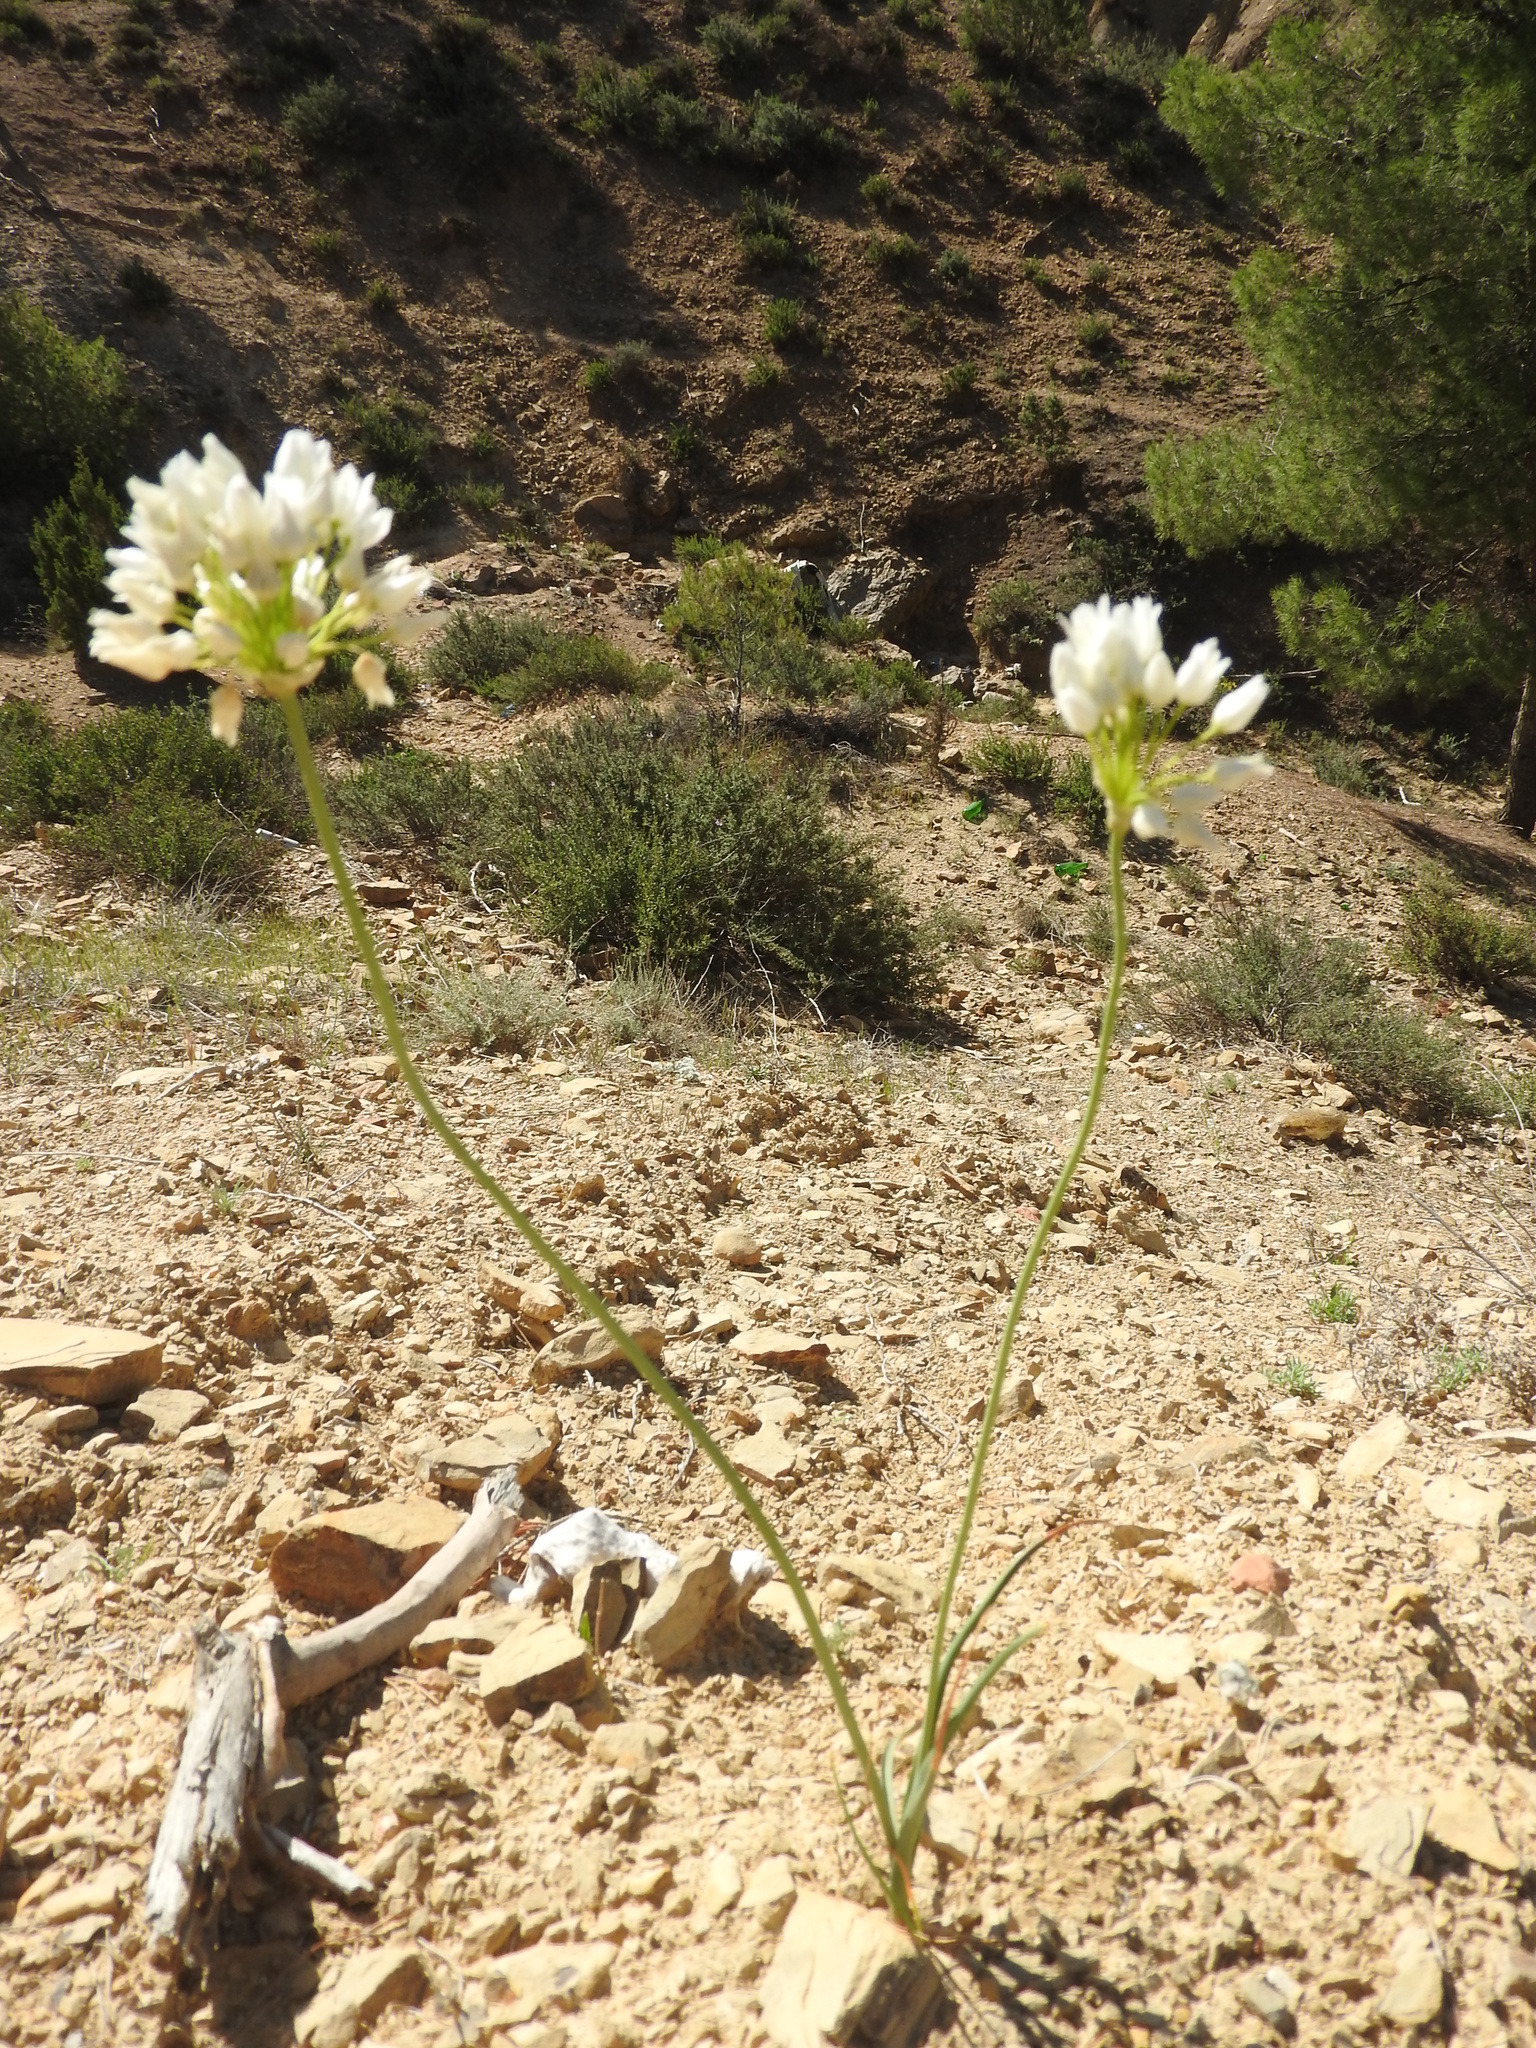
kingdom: Plantae
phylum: Tracheophyta
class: Liliopsida
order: Asparagales
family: Amaryllidaceae
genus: Allium
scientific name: Allium roseum
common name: Rosy garlic
